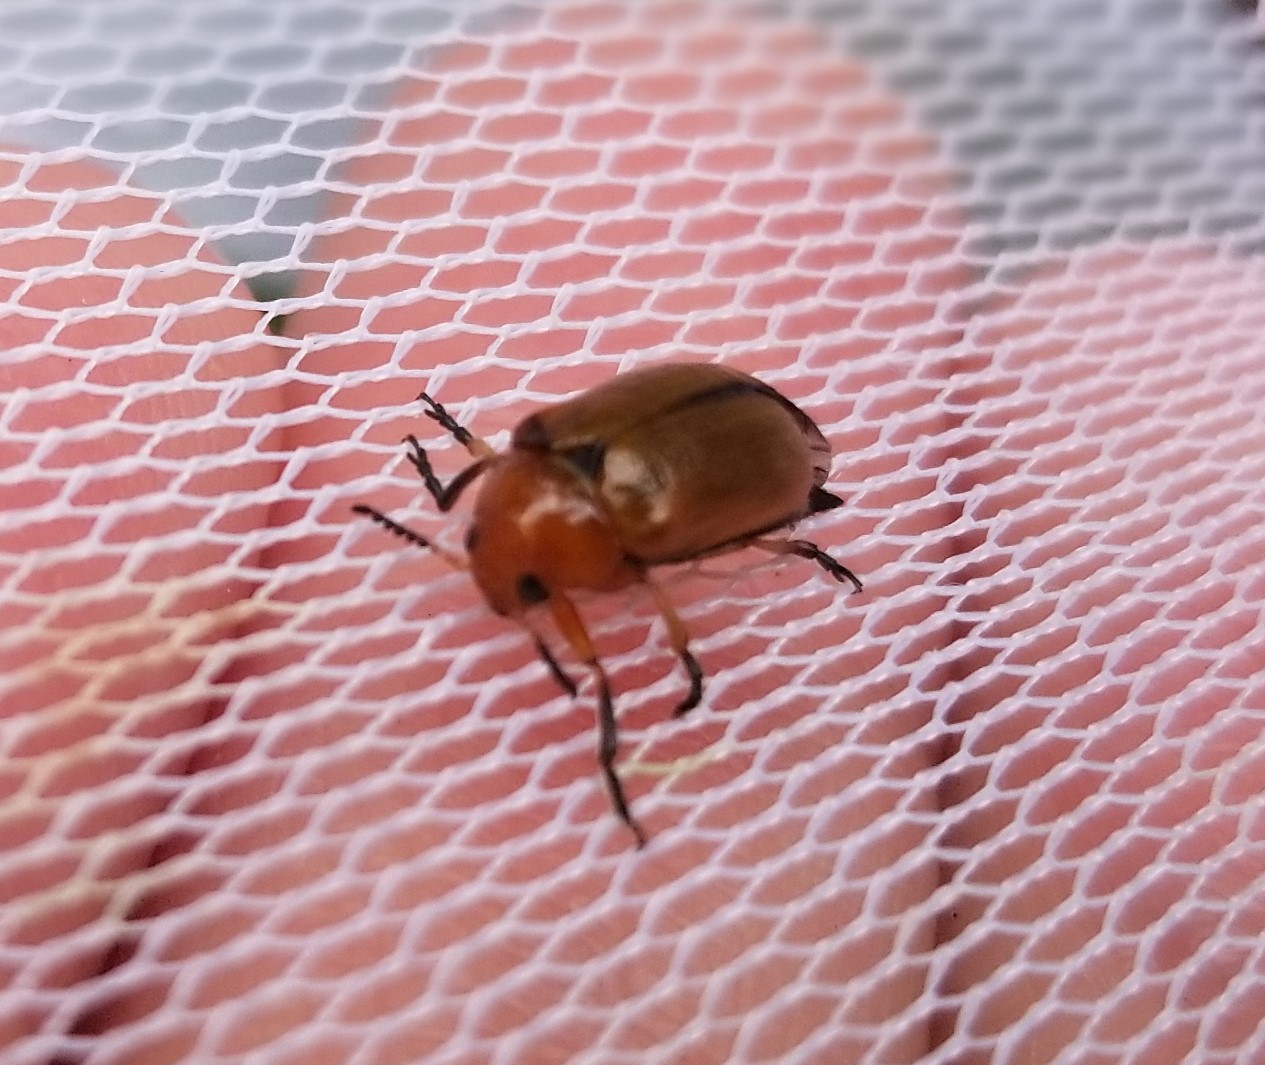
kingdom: Animalia
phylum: Arthropoda
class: Insecta
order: Coleoptera
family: Chrysomelidae
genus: Anomoea
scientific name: Anomoea laticlavia
